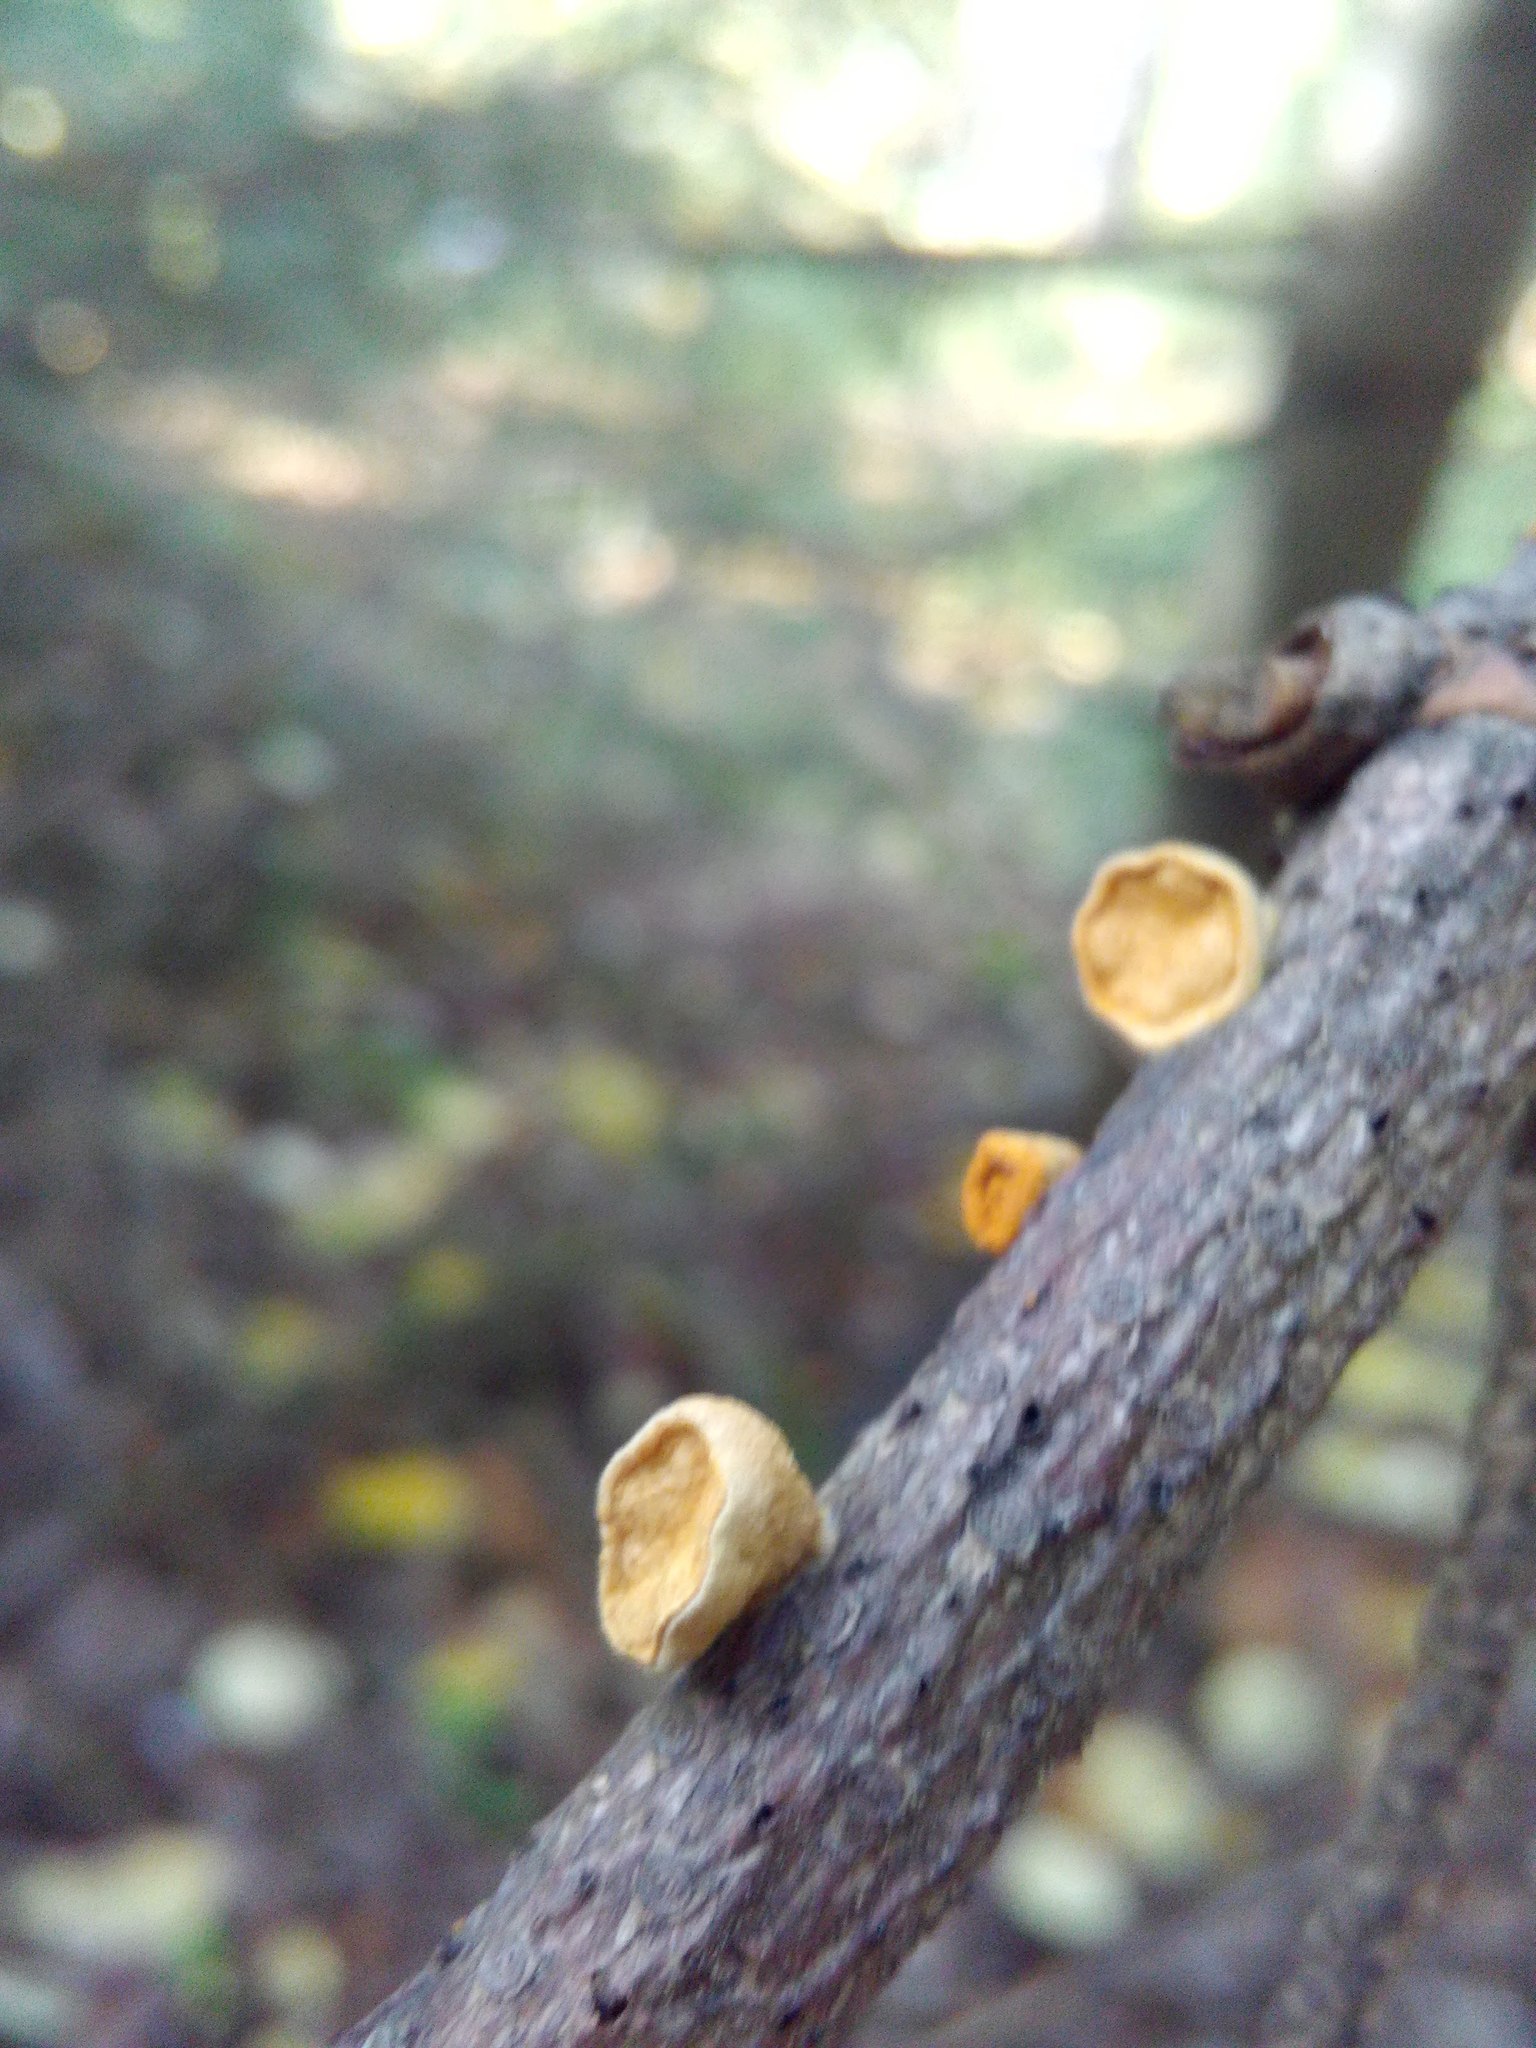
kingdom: Fungi
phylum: Basidiomycota
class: Agaricomycetes
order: Agaricales
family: Nidulariaceae
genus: Crucibulum
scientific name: Crucibulum laeve
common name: Common bird's nest
